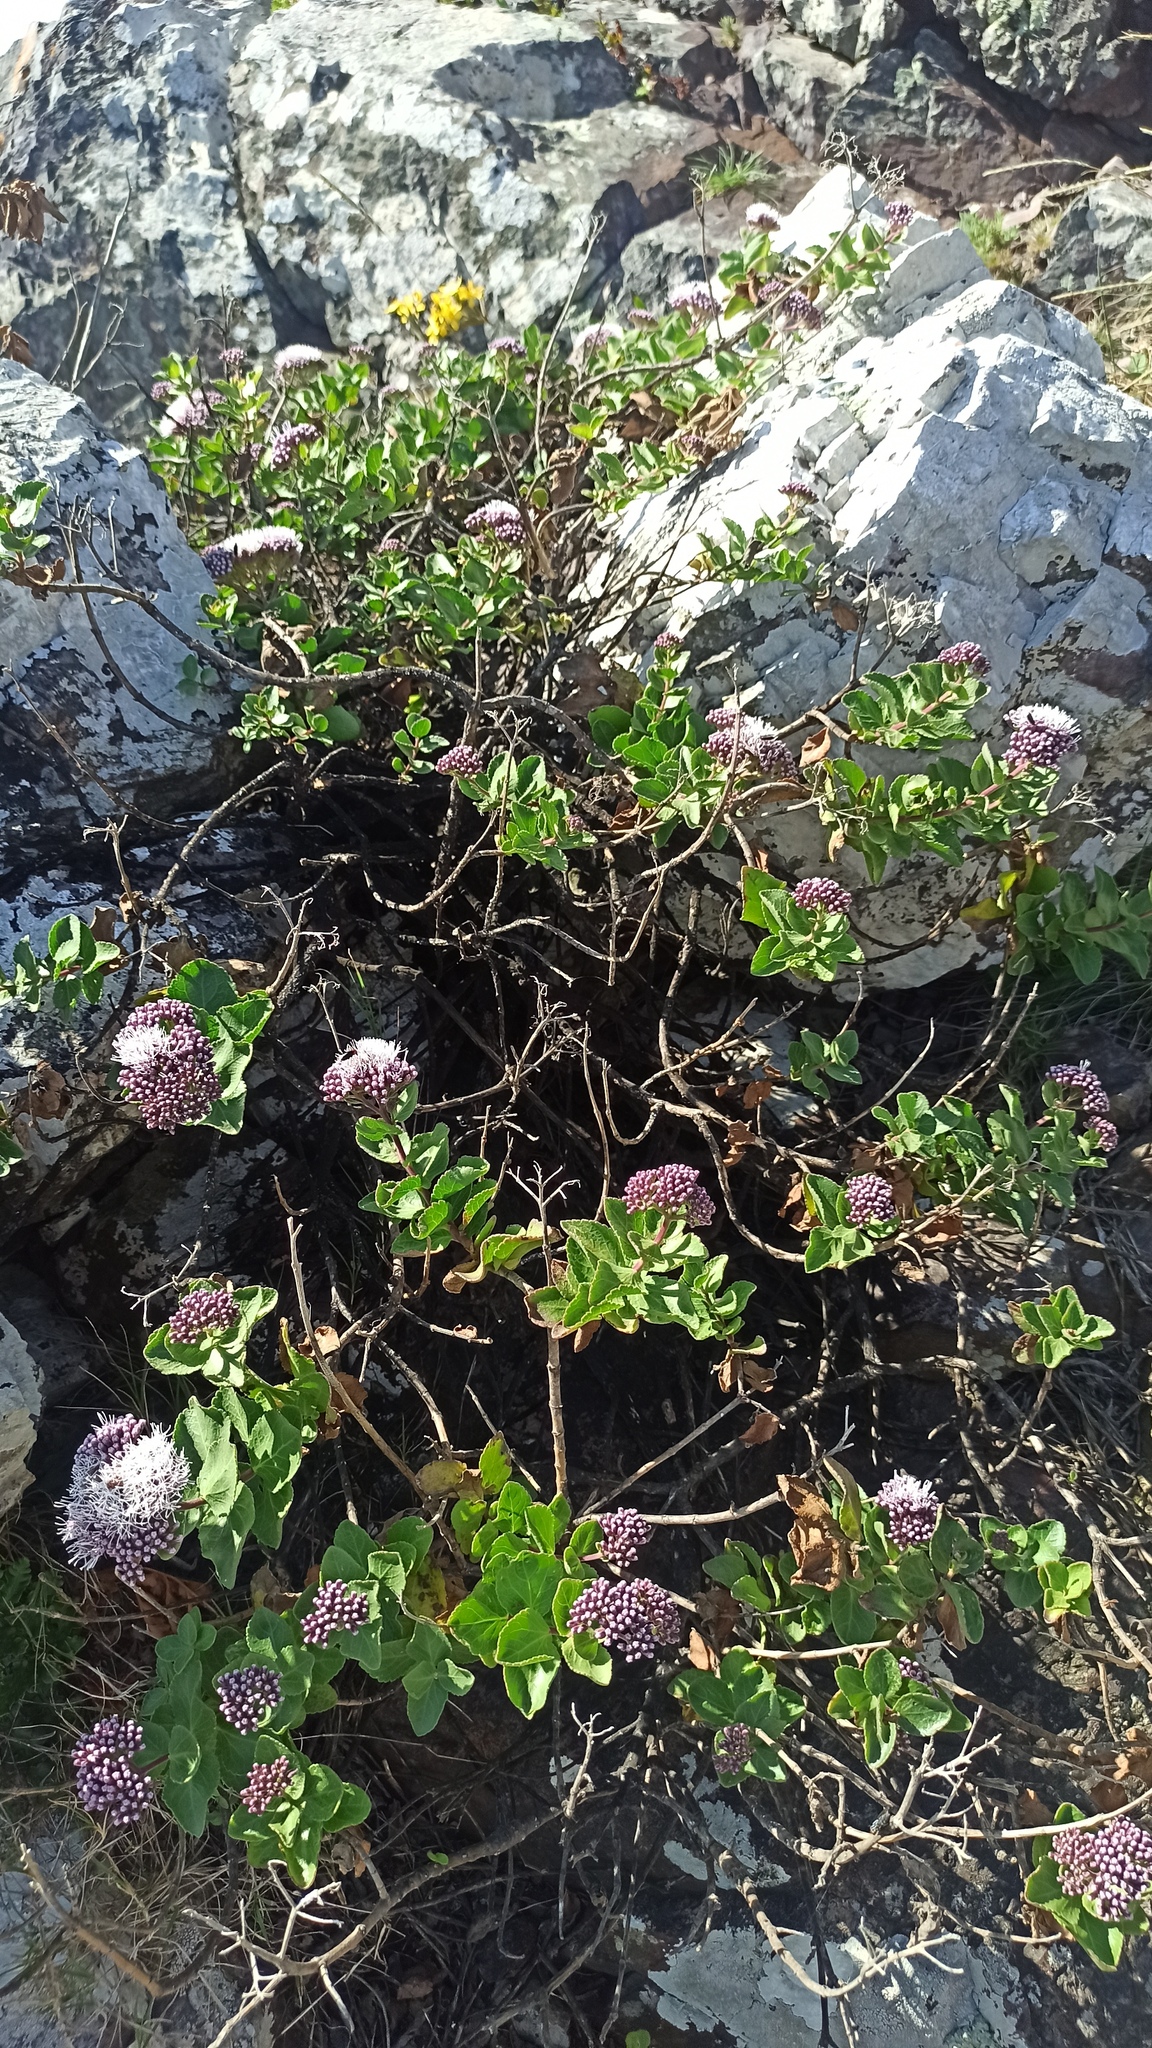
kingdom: Plantae
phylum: Tracheophyta
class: Magnoliopsida
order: Asterales
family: Asteraceae
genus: Grazielia
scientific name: Grazielia brevipetiolata
